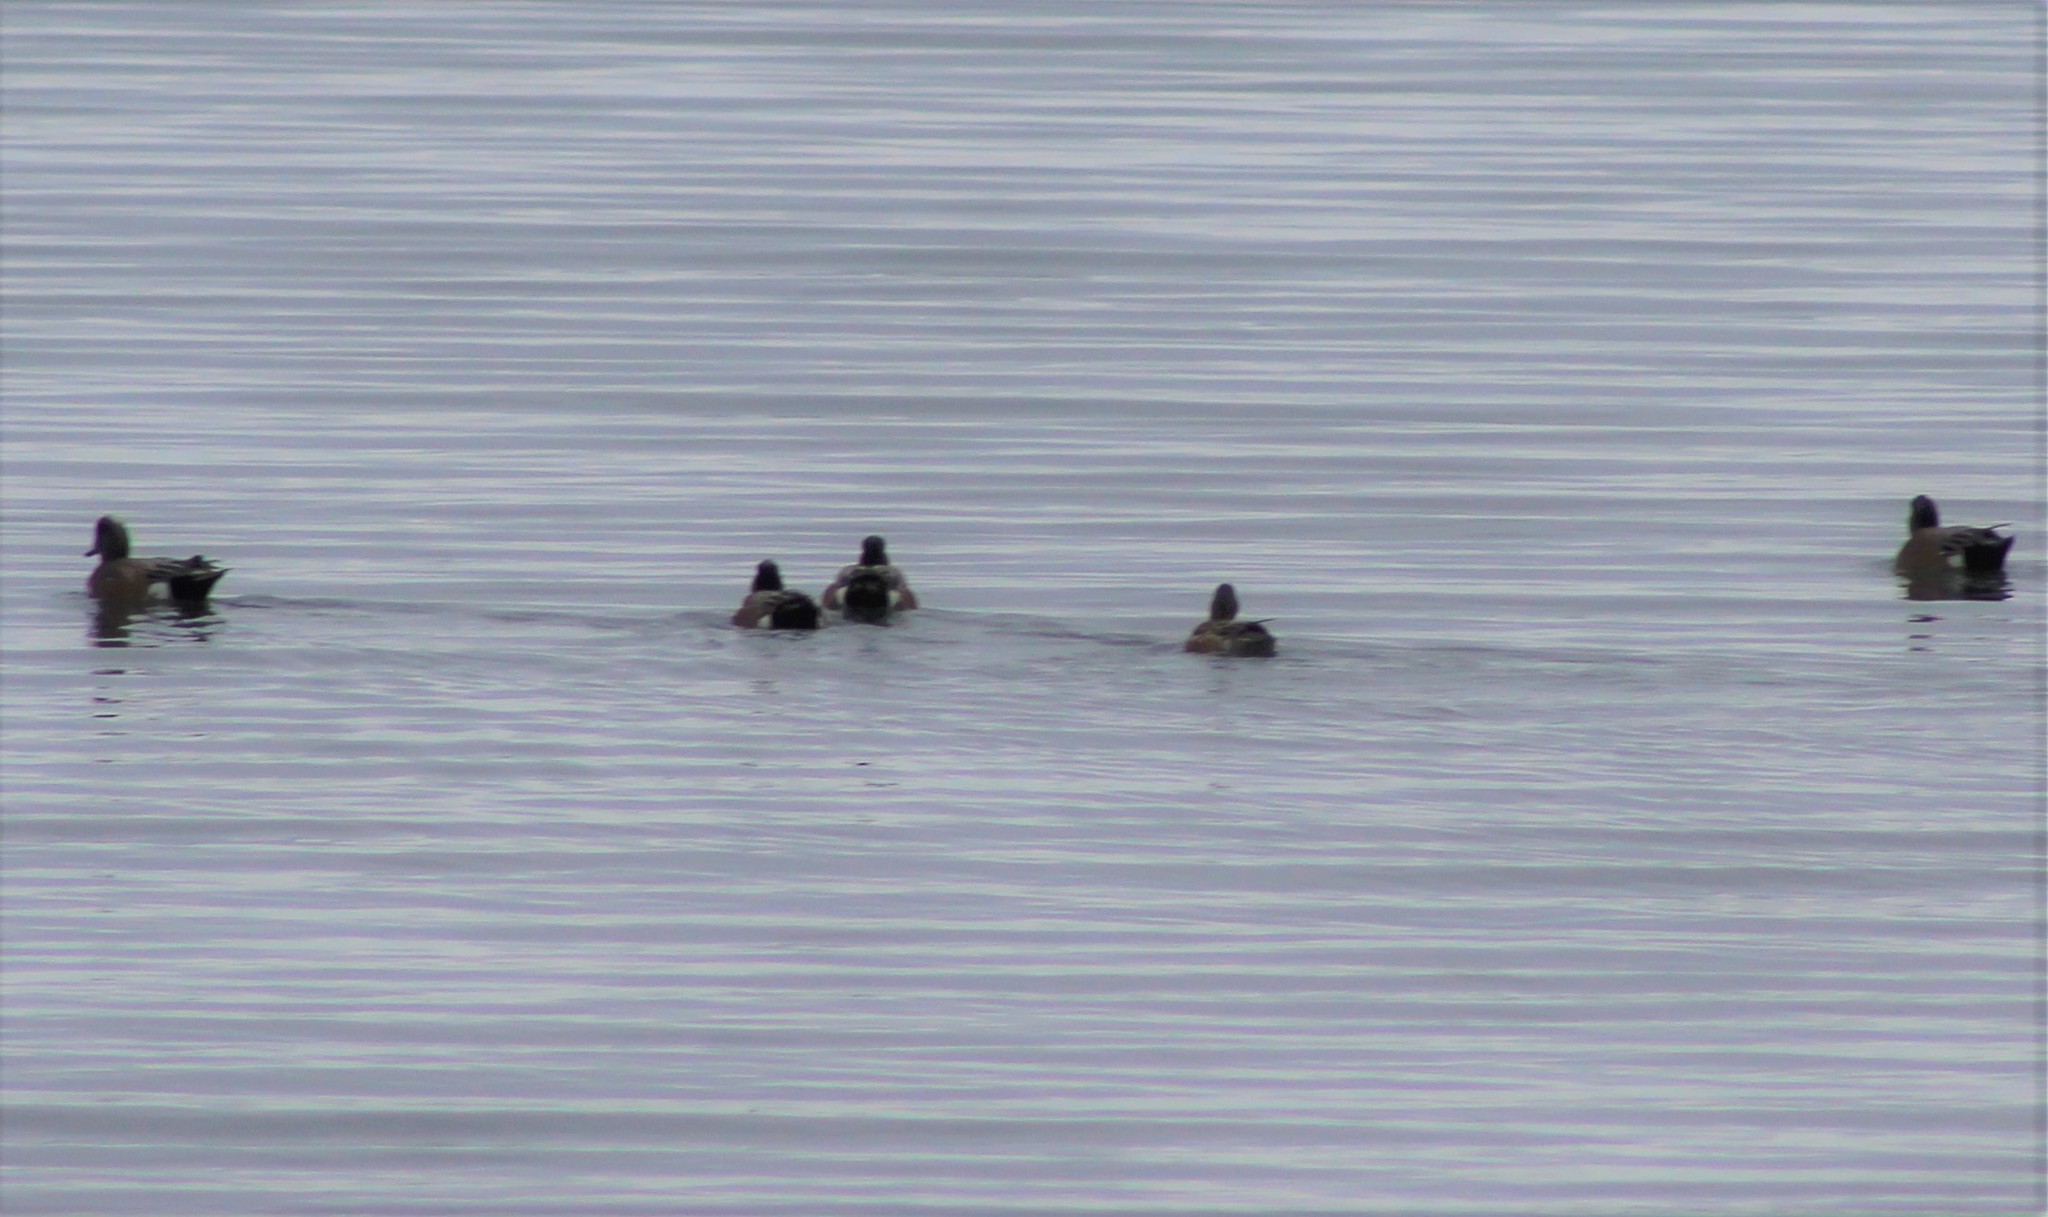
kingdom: Animalia
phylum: Chordata
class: Aves
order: Anseriformes
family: Anatidae
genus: Mareca
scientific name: Mareca americana
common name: American wigeon
